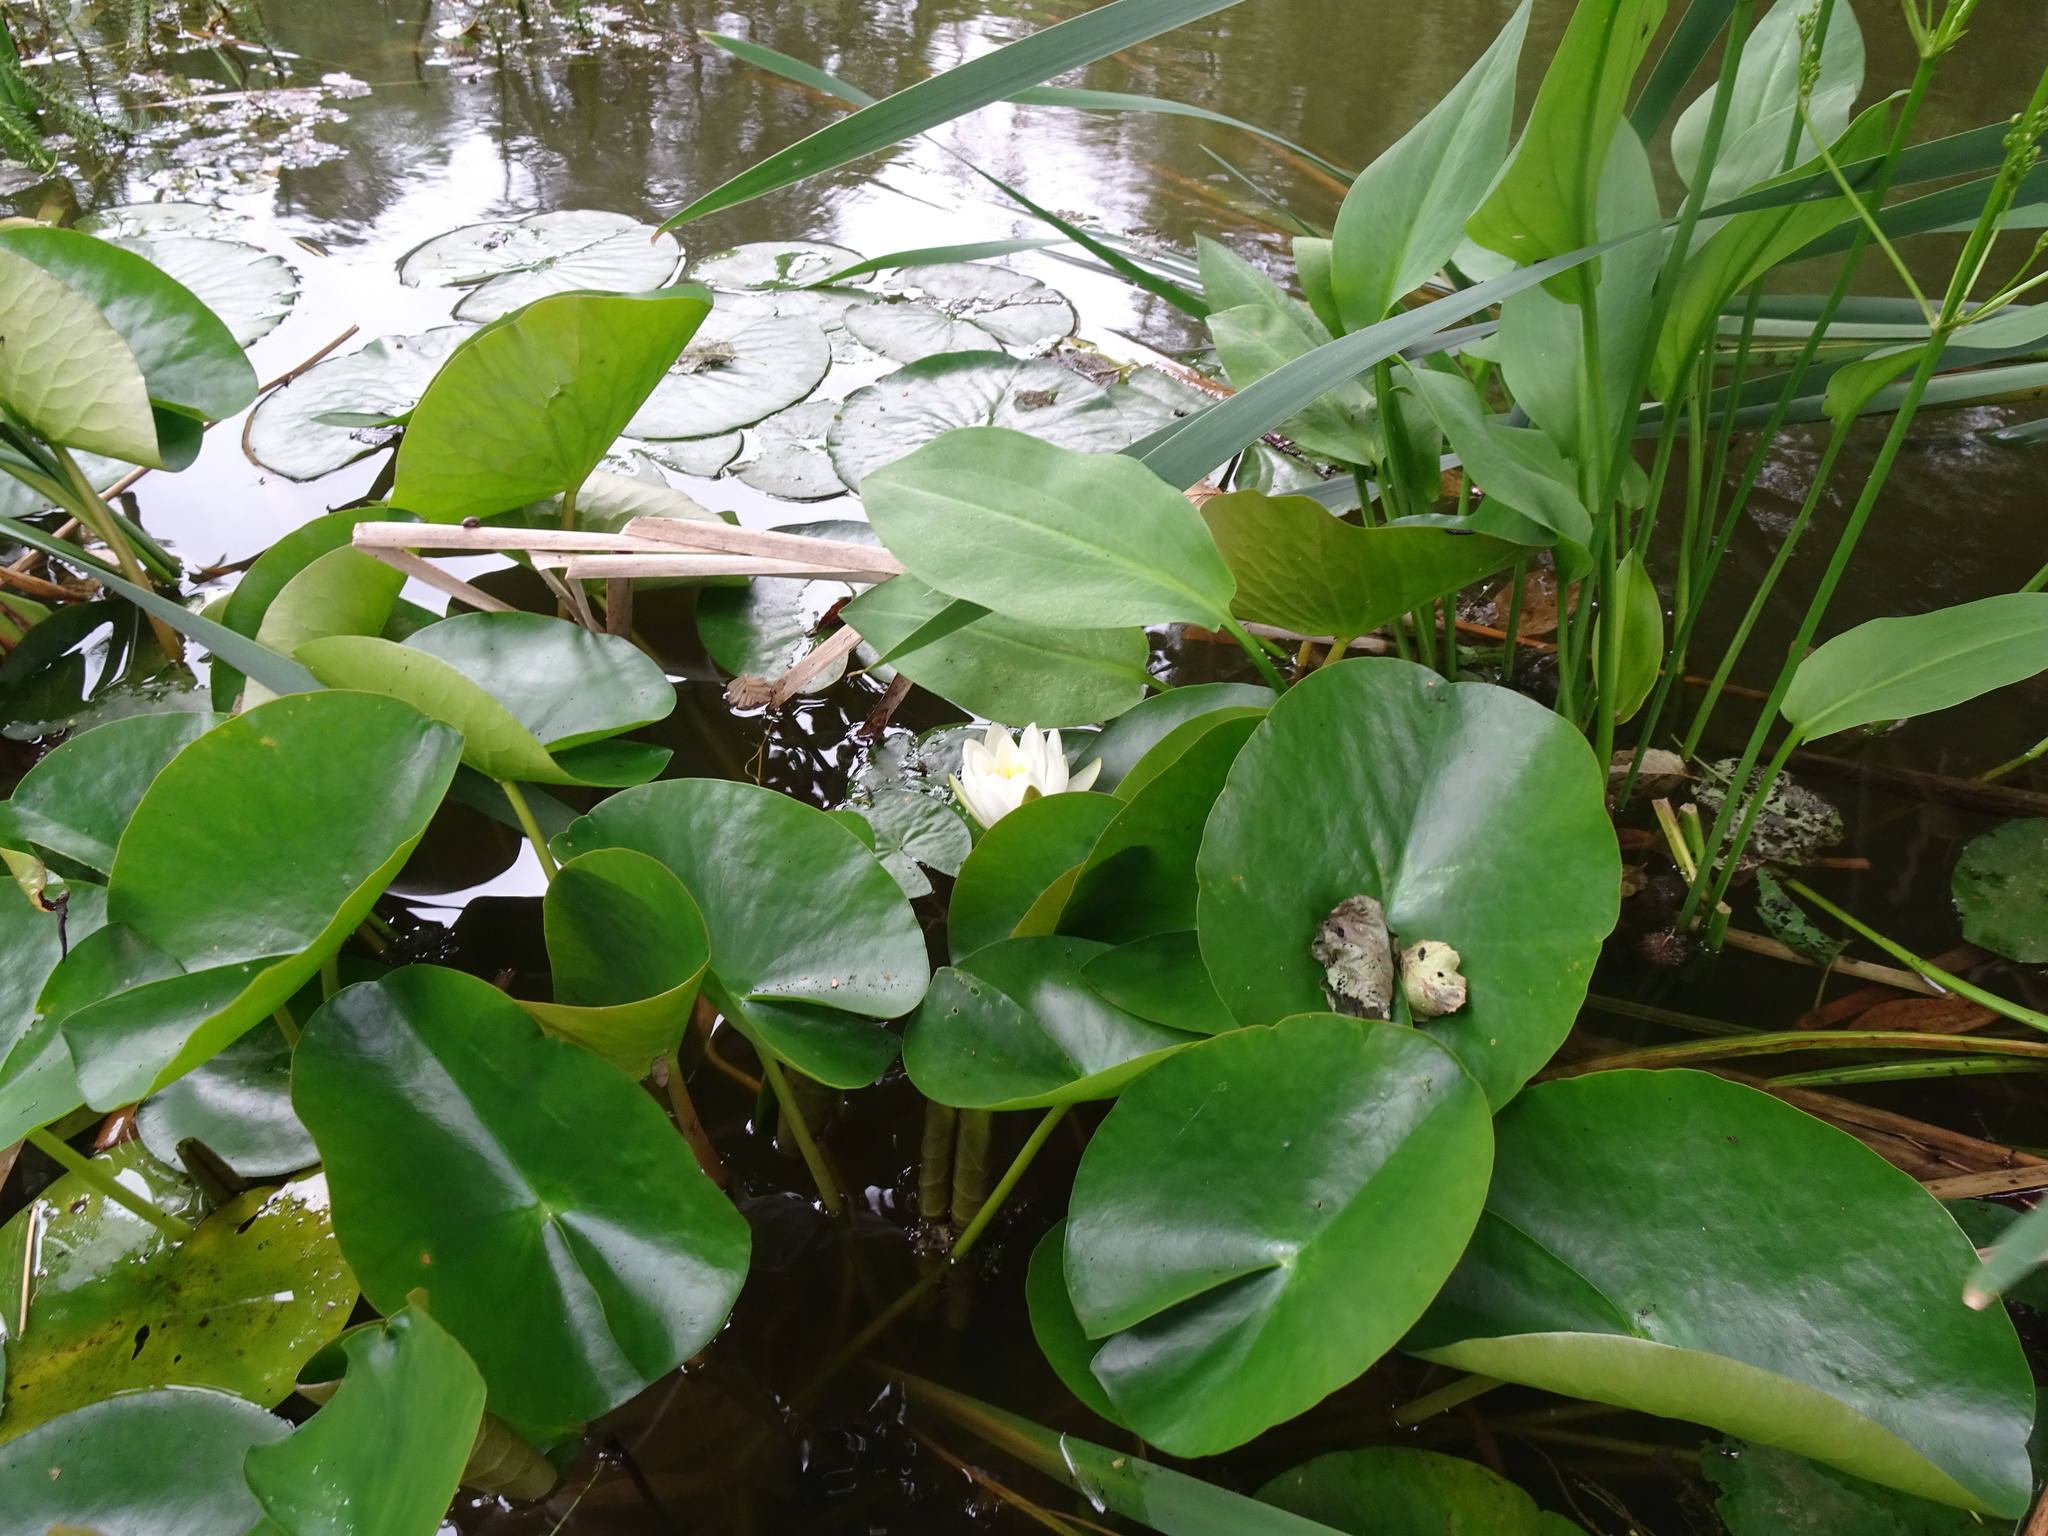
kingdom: Plantae
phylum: Tracheophyta
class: Magnoliopsida
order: Nymphaeales
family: Nymphaeaceae
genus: Nymphaea
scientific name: Nymphaea alba
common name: White water-lily
